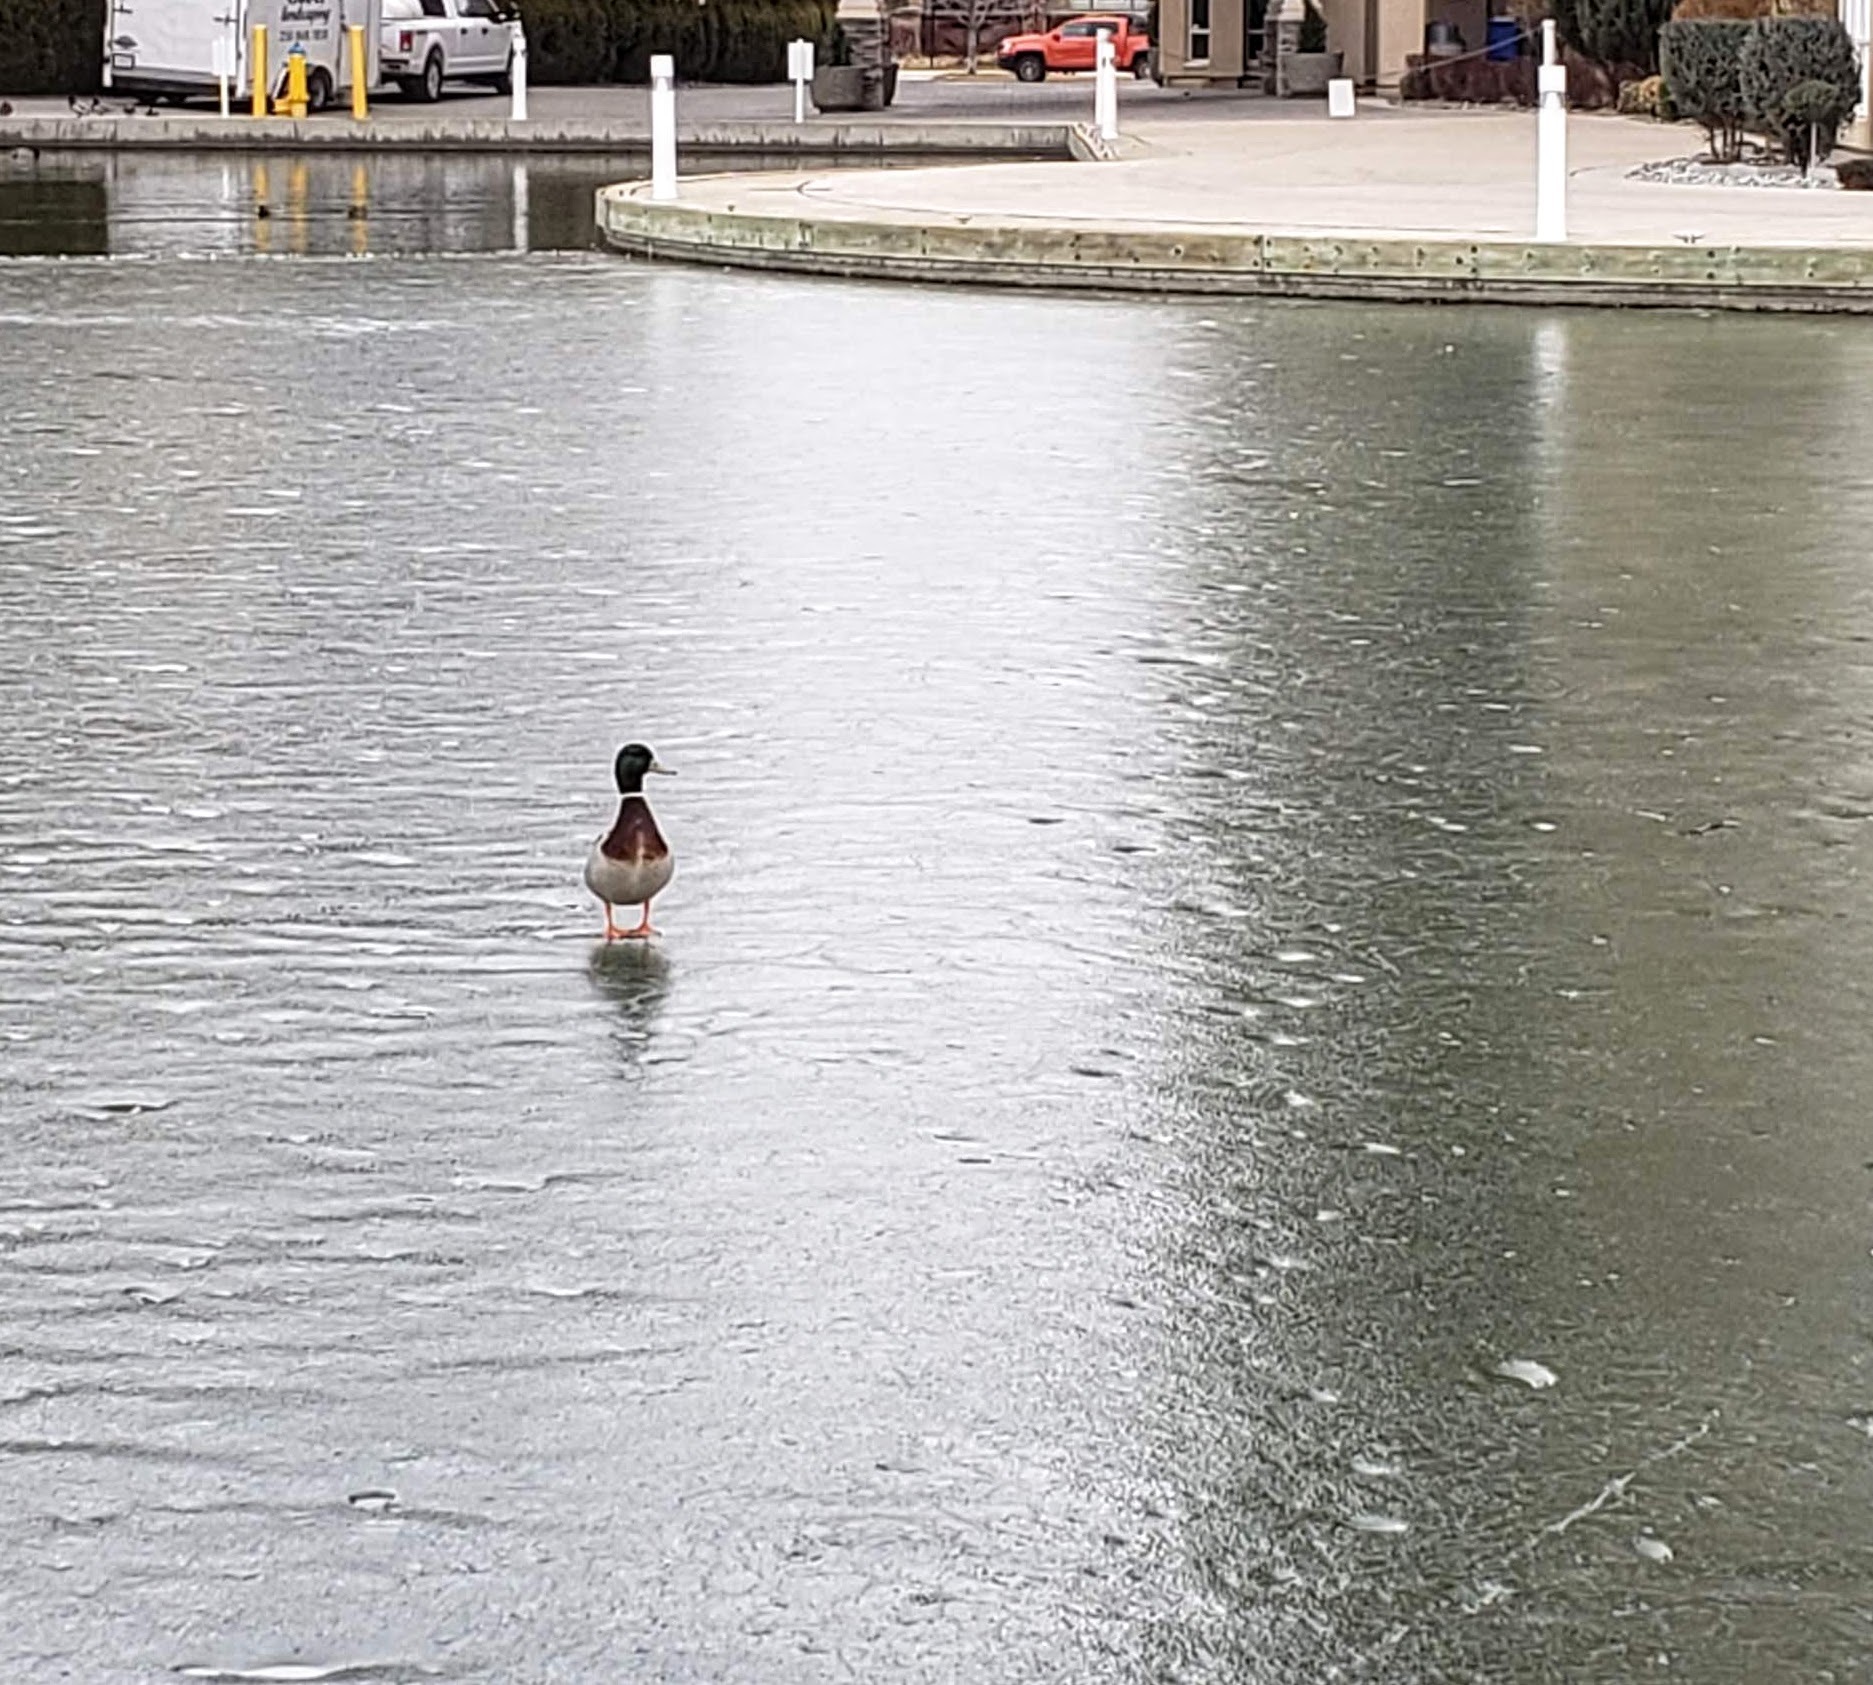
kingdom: Animalia
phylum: Chordata
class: Aves
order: Anseriformes
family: Anatidae
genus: Anas
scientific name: Anas platyrhynchos
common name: Mallard
